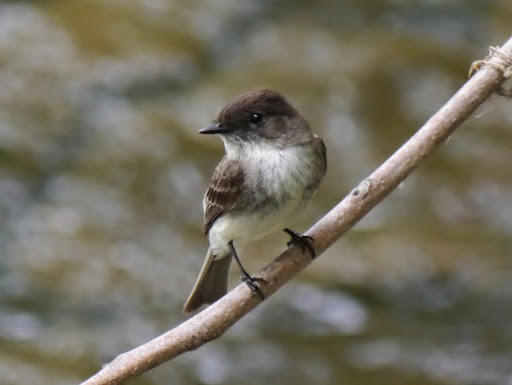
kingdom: Animalia
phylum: Chordata
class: Aves
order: Passeriformes
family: Tyrannidae
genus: Sayornis
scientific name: Sayornis phoebe
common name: Eastern phoebe
